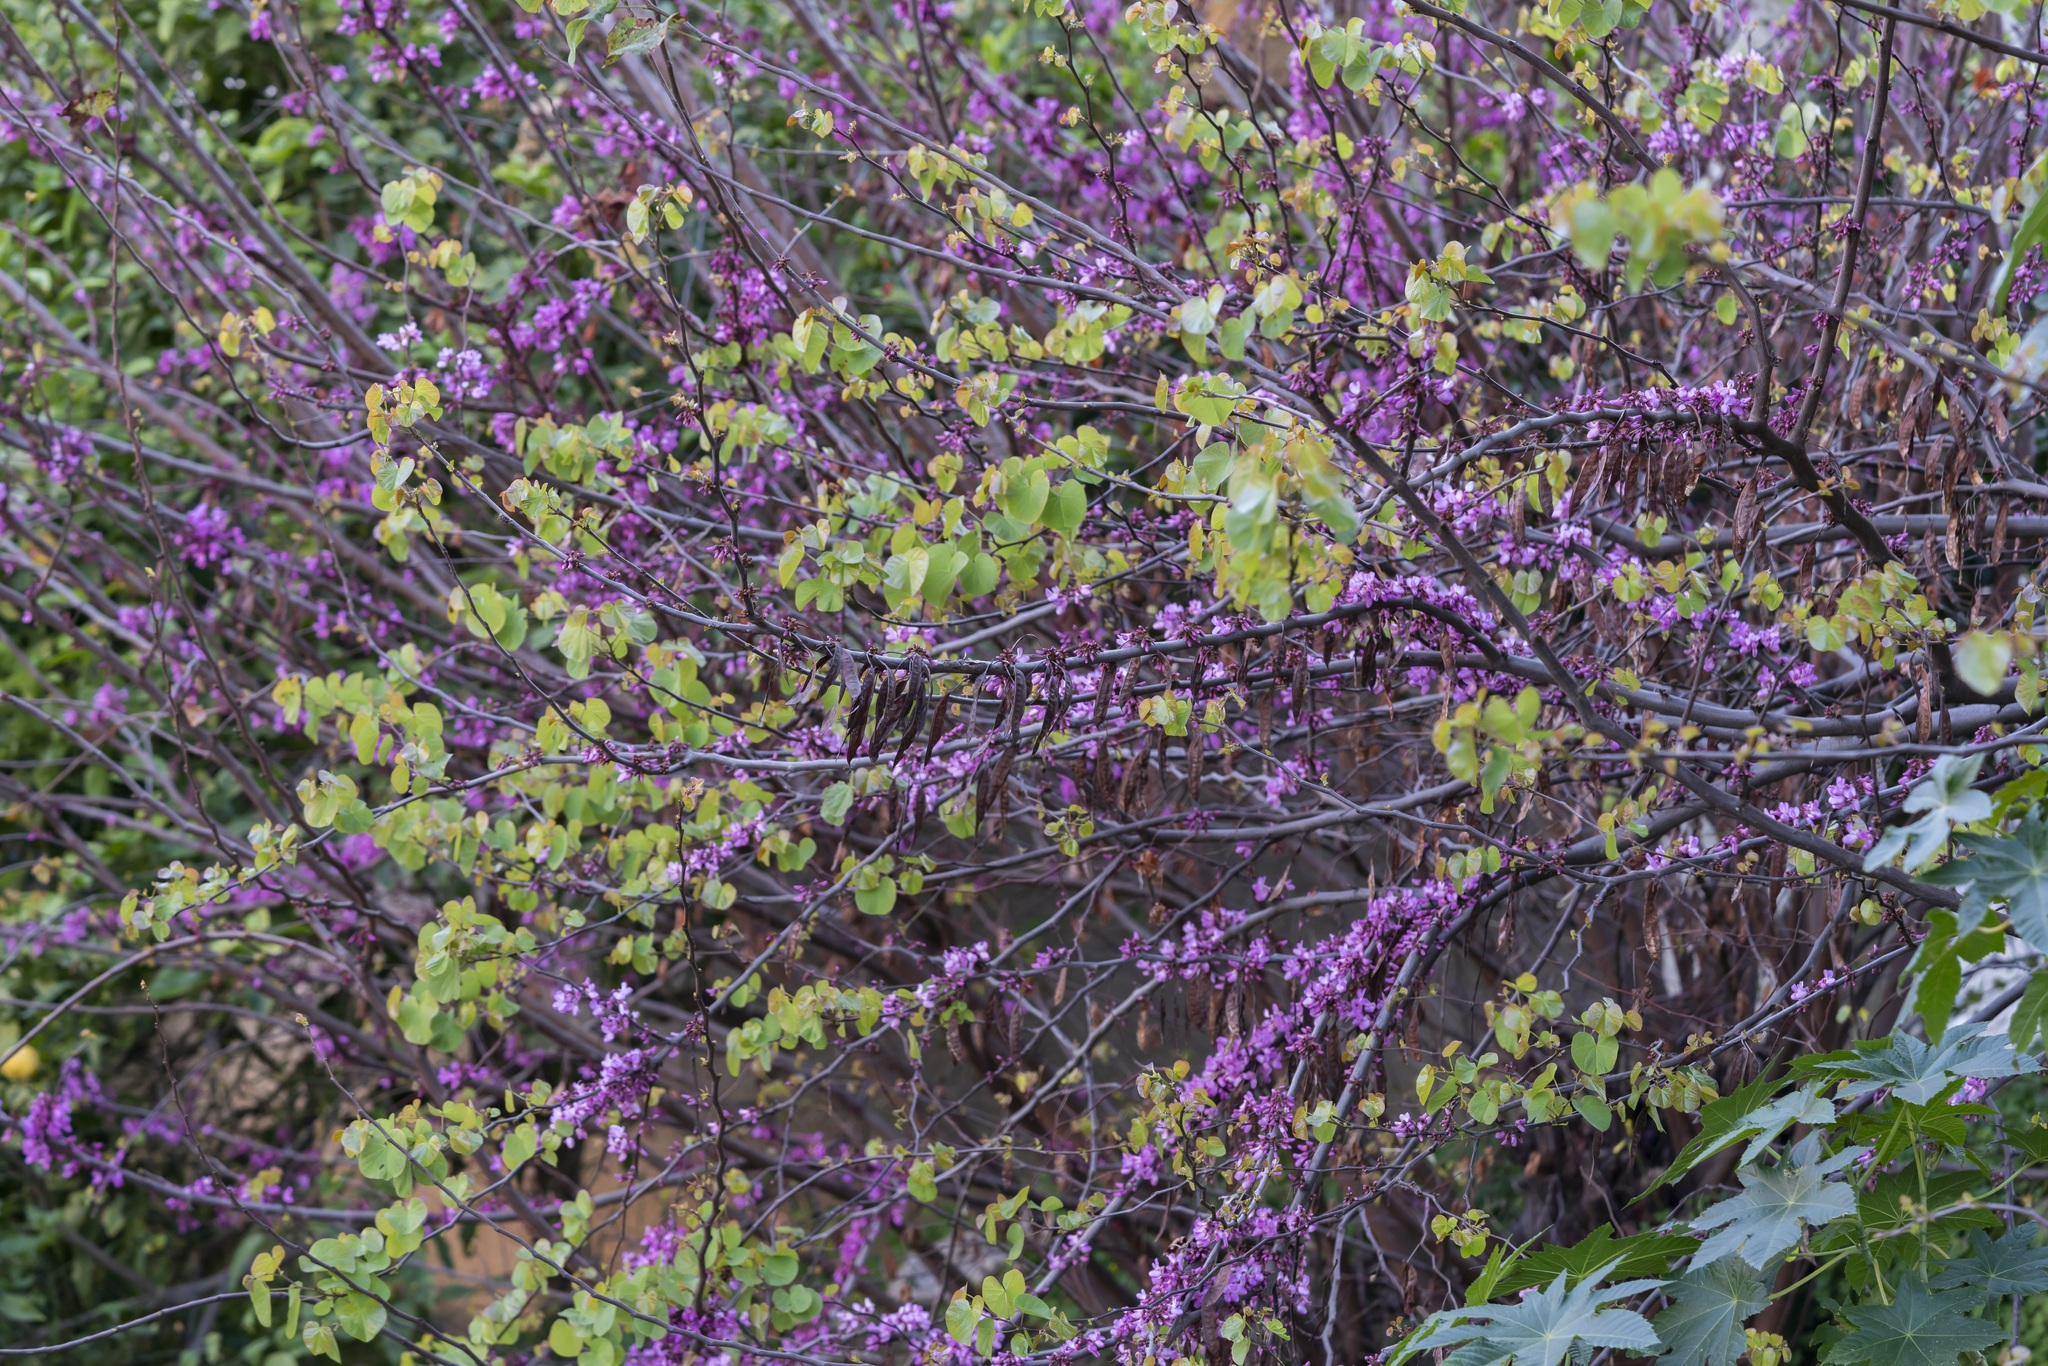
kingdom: Plantae
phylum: Tracheophyta
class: Magnoliopsida
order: Fabales
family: Fabaceae
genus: Cercis
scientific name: Cercis siliquastrum
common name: Judas tree
